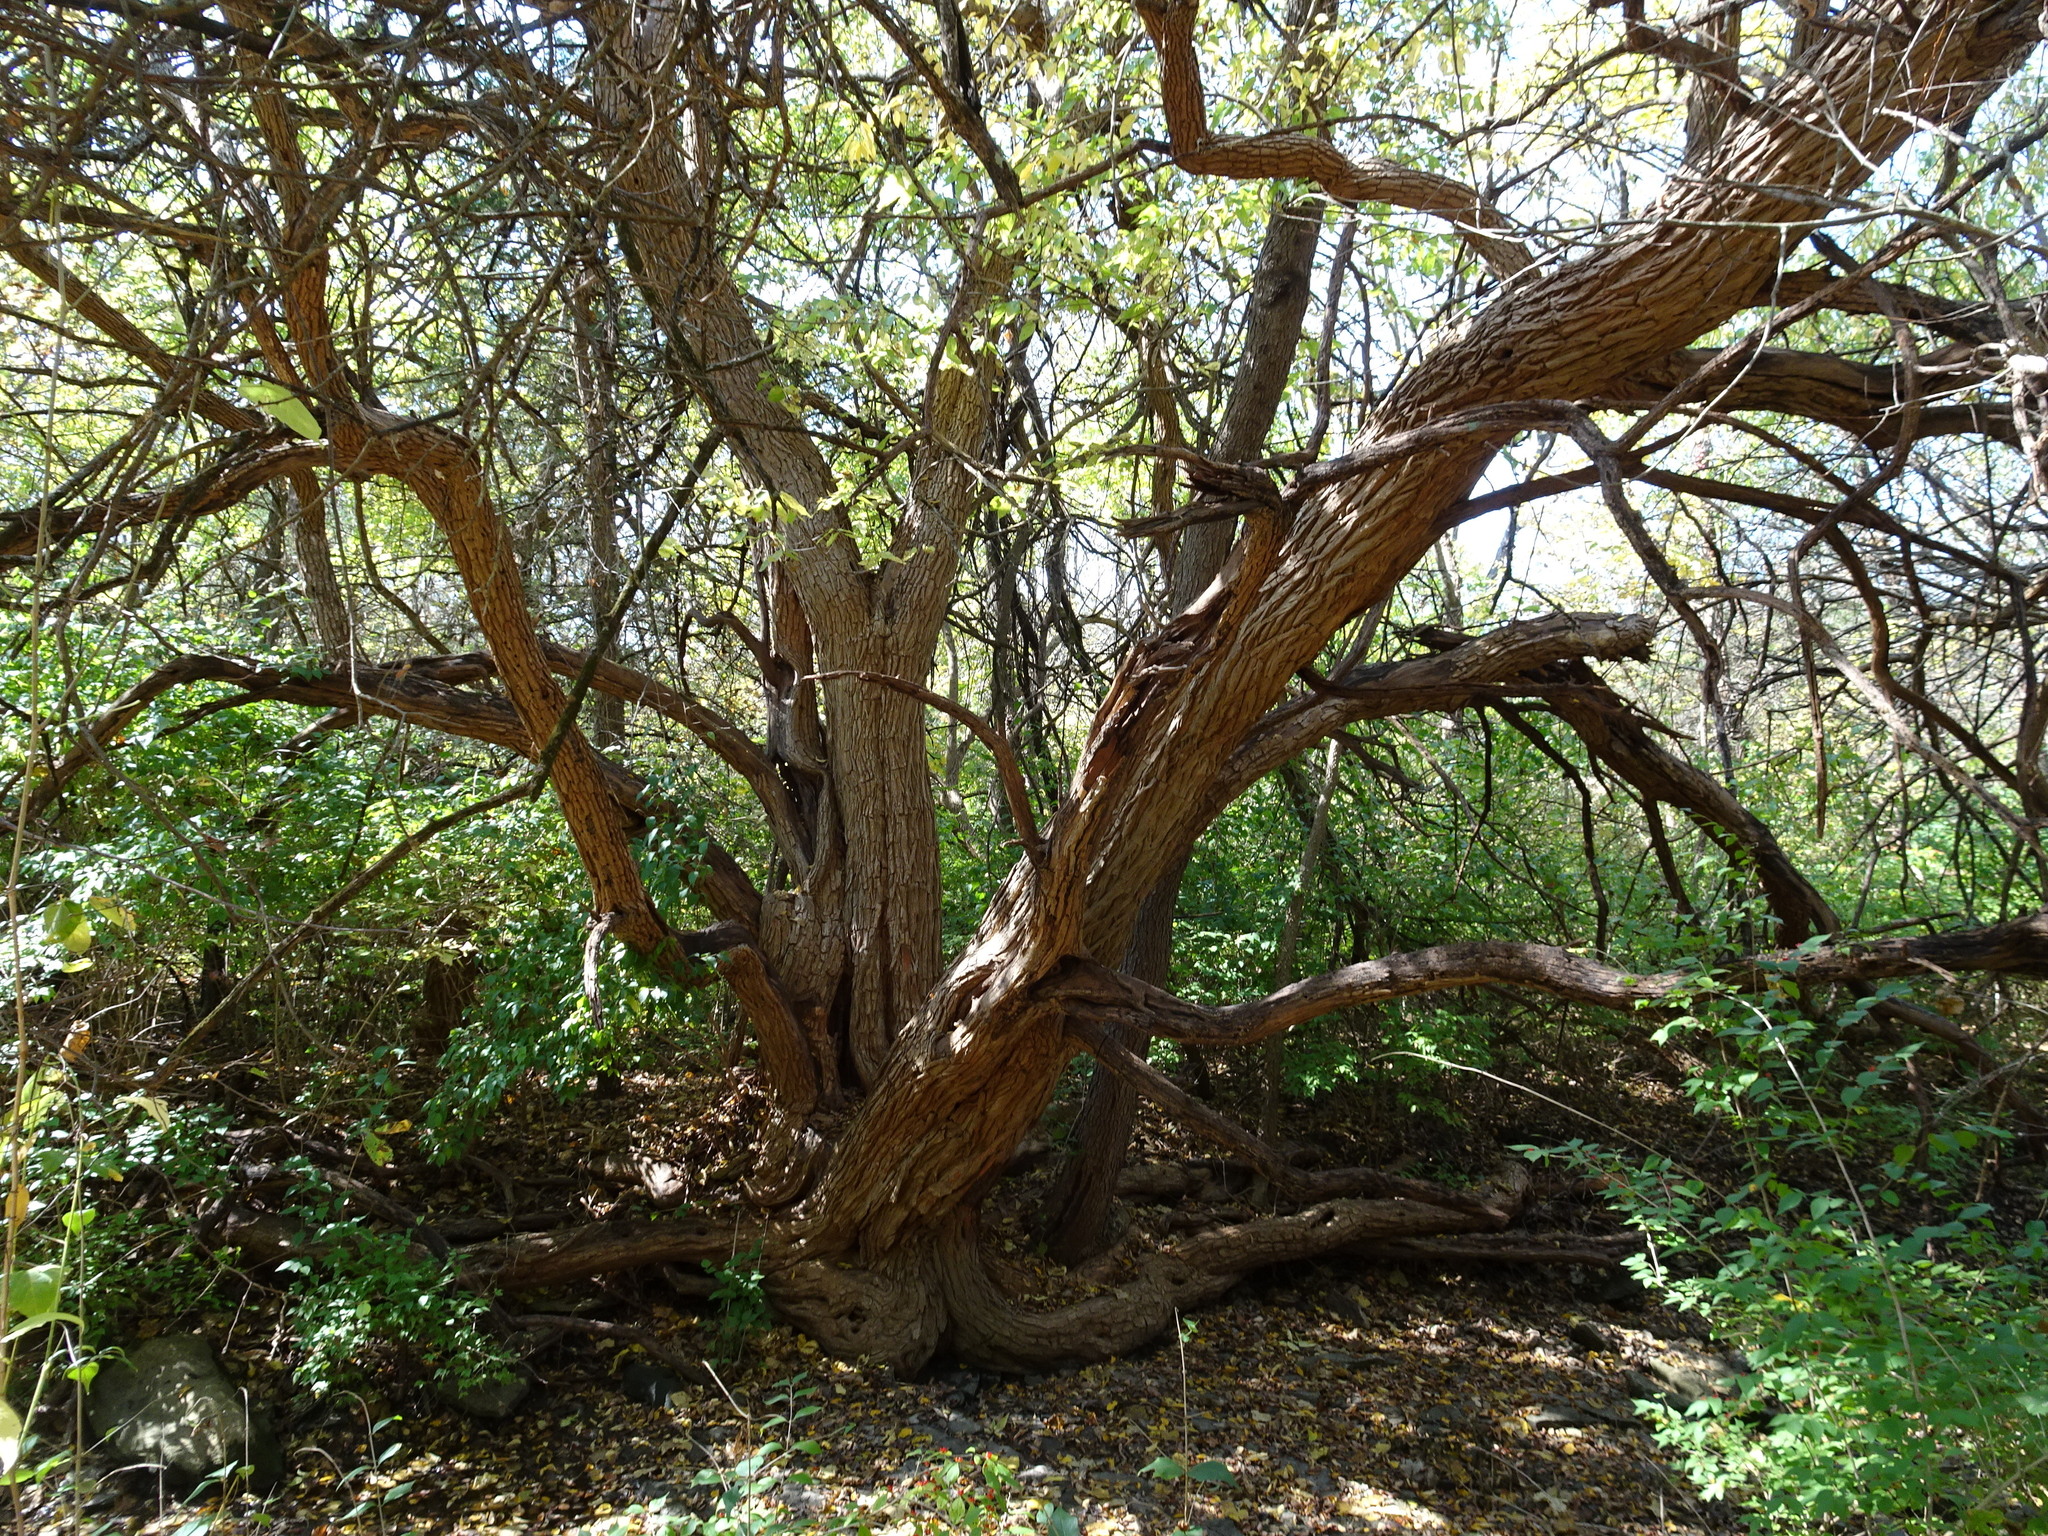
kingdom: Plantae
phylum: Tracheophyta
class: Magnoliopsida
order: Rosales
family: Moraceae
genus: Maclura
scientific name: Maclura pomifera
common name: Osage-orange
